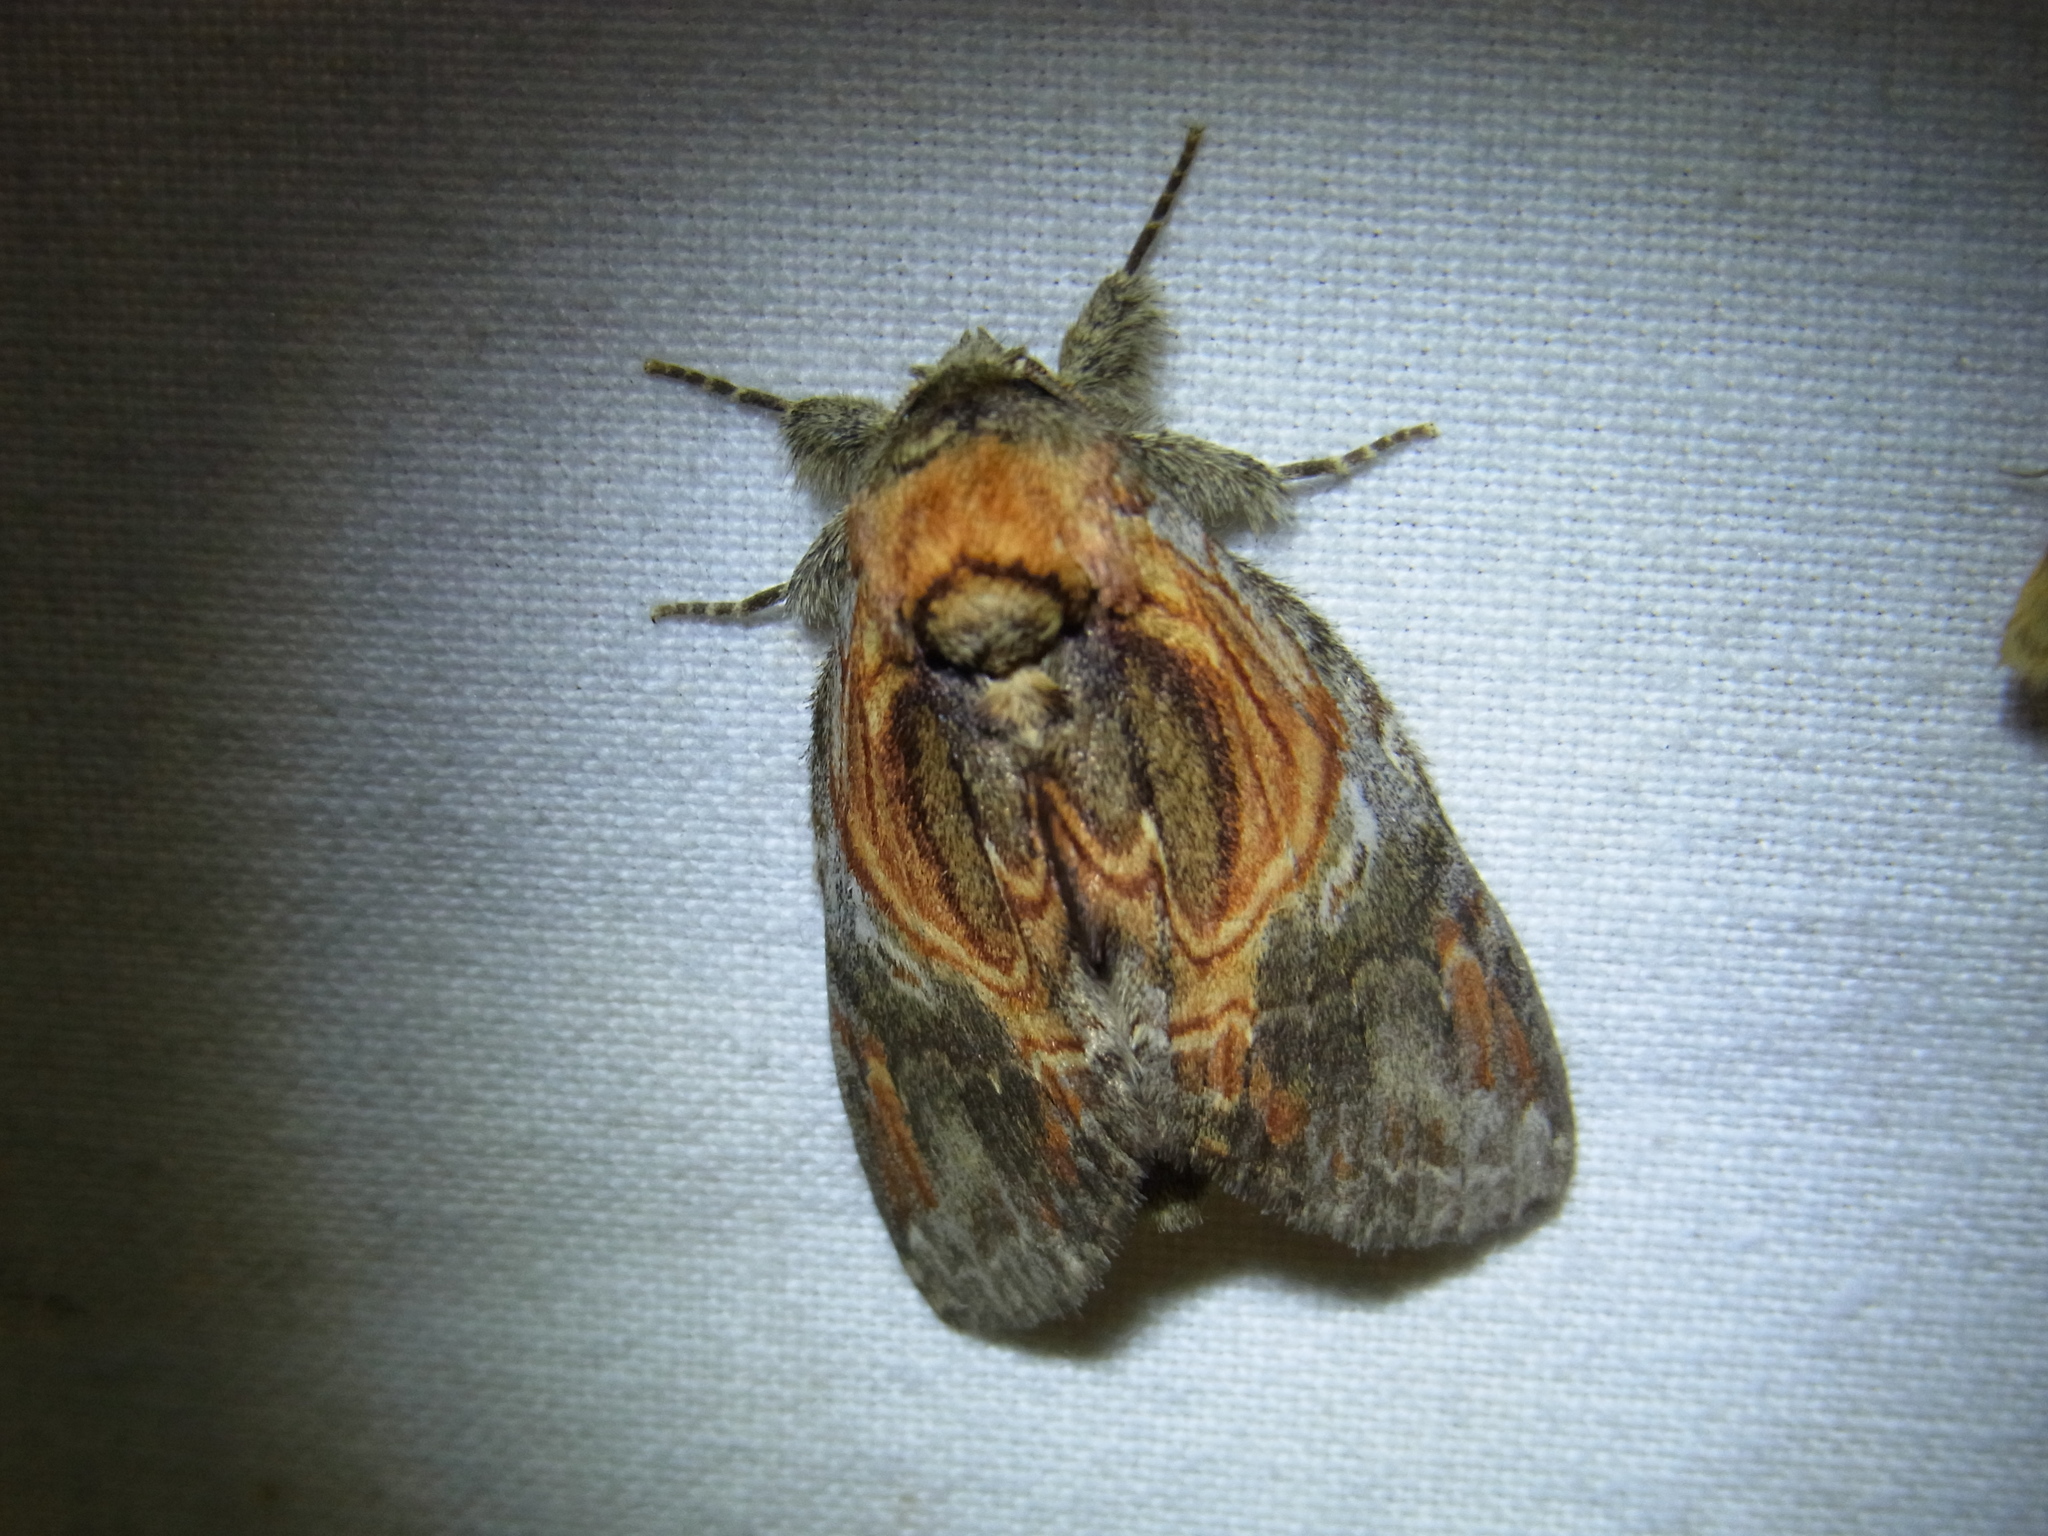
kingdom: Animalia
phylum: Arthropoda
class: Insecta
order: Lepidoptera
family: Notodontidae
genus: Peridea
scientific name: Peridea aliena
